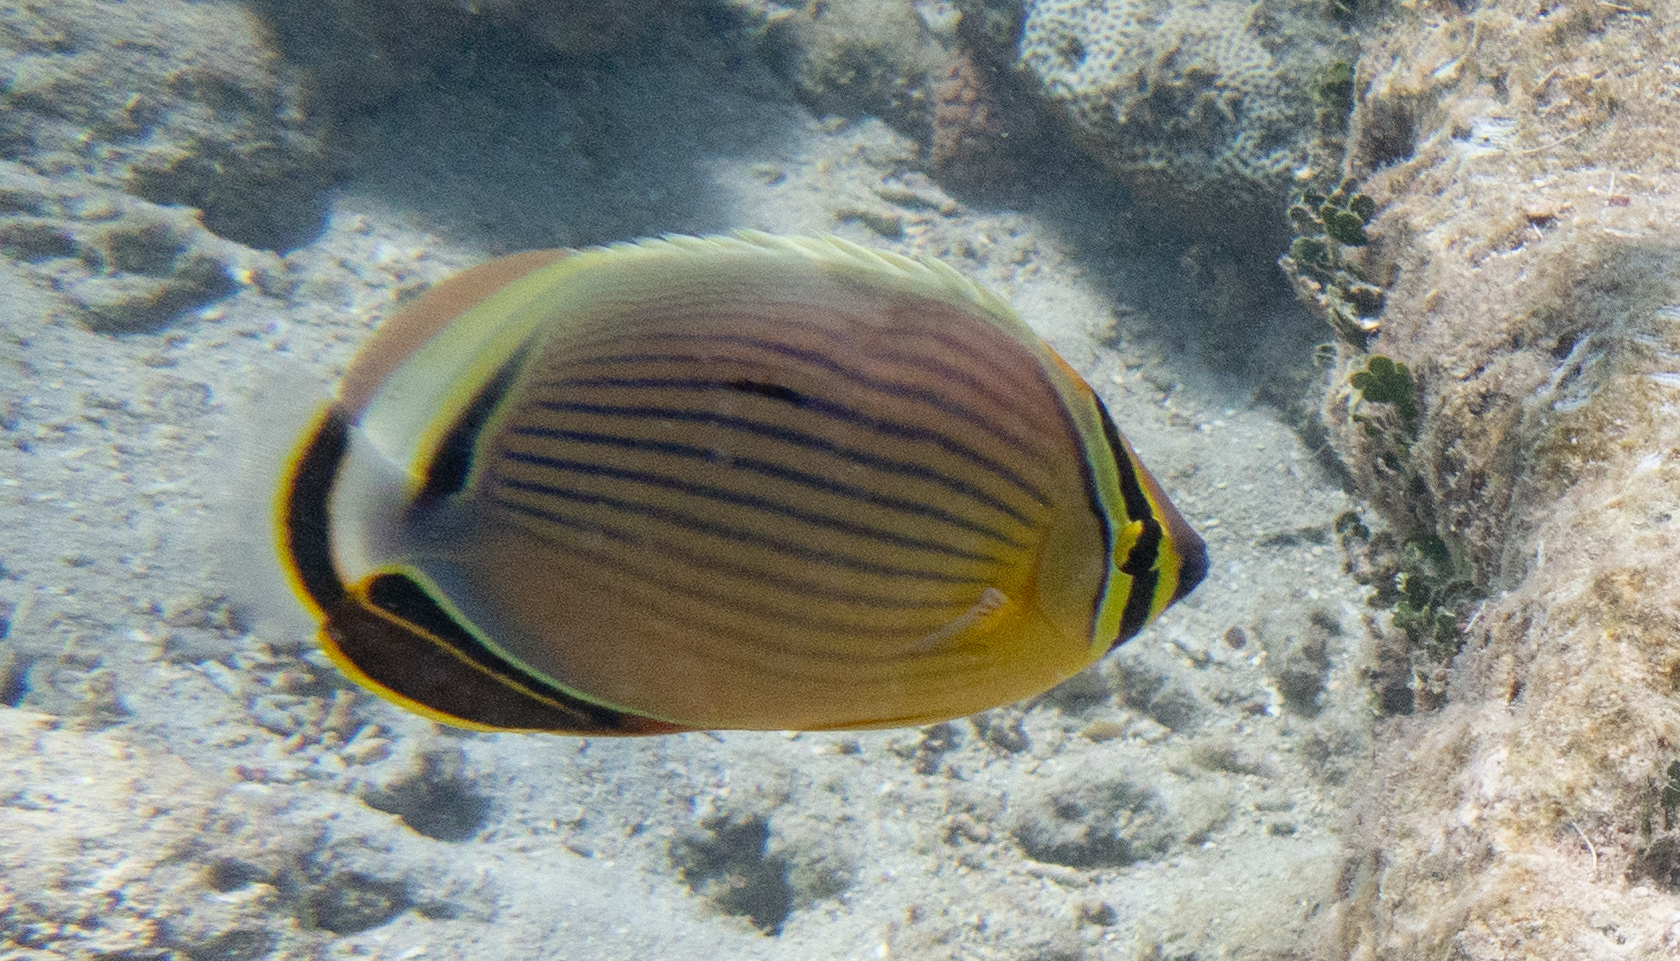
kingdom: Animalia
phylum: Chordata
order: Perciformes
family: Chaetodontidae
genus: Chaetodon
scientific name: Chaetodon lunulatus
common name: Redfin butterflyfish
